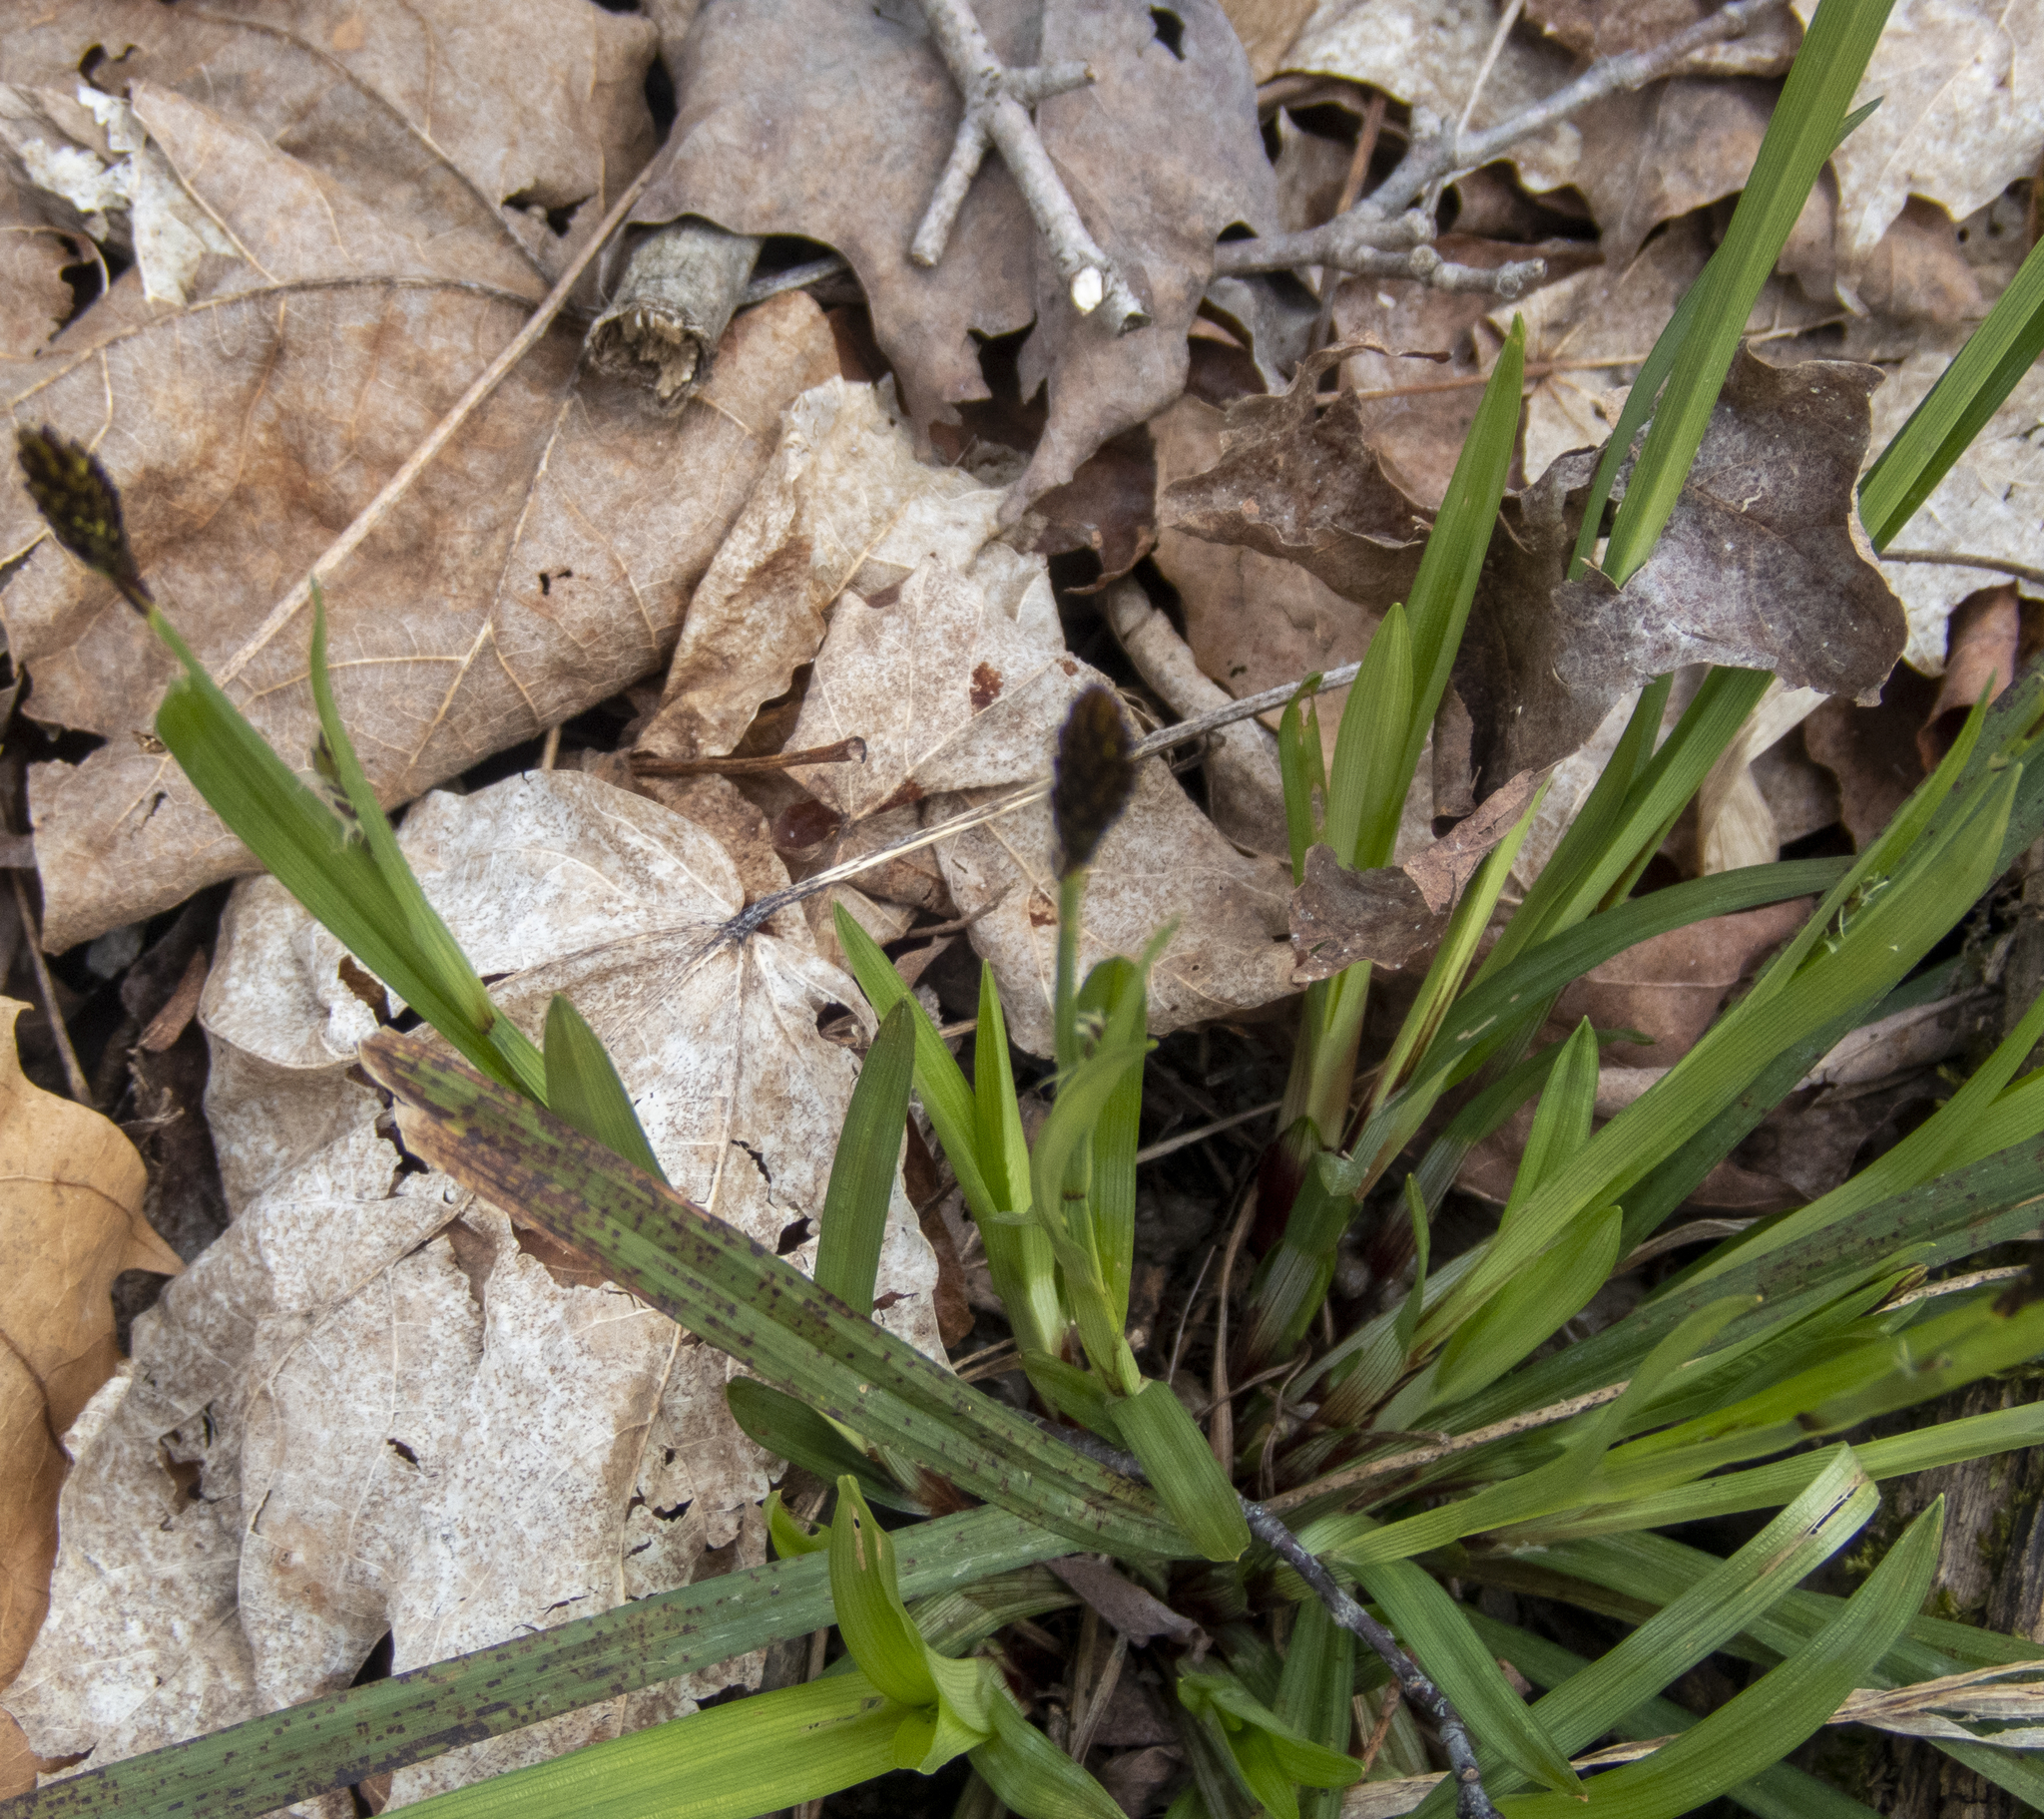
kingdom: Plantae
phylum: Tracheophyta
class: Liliopsida
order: Poales
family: Cyperaceae
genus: Carex
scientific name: Carex plantaginea
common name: Plantain-leaved sedge
